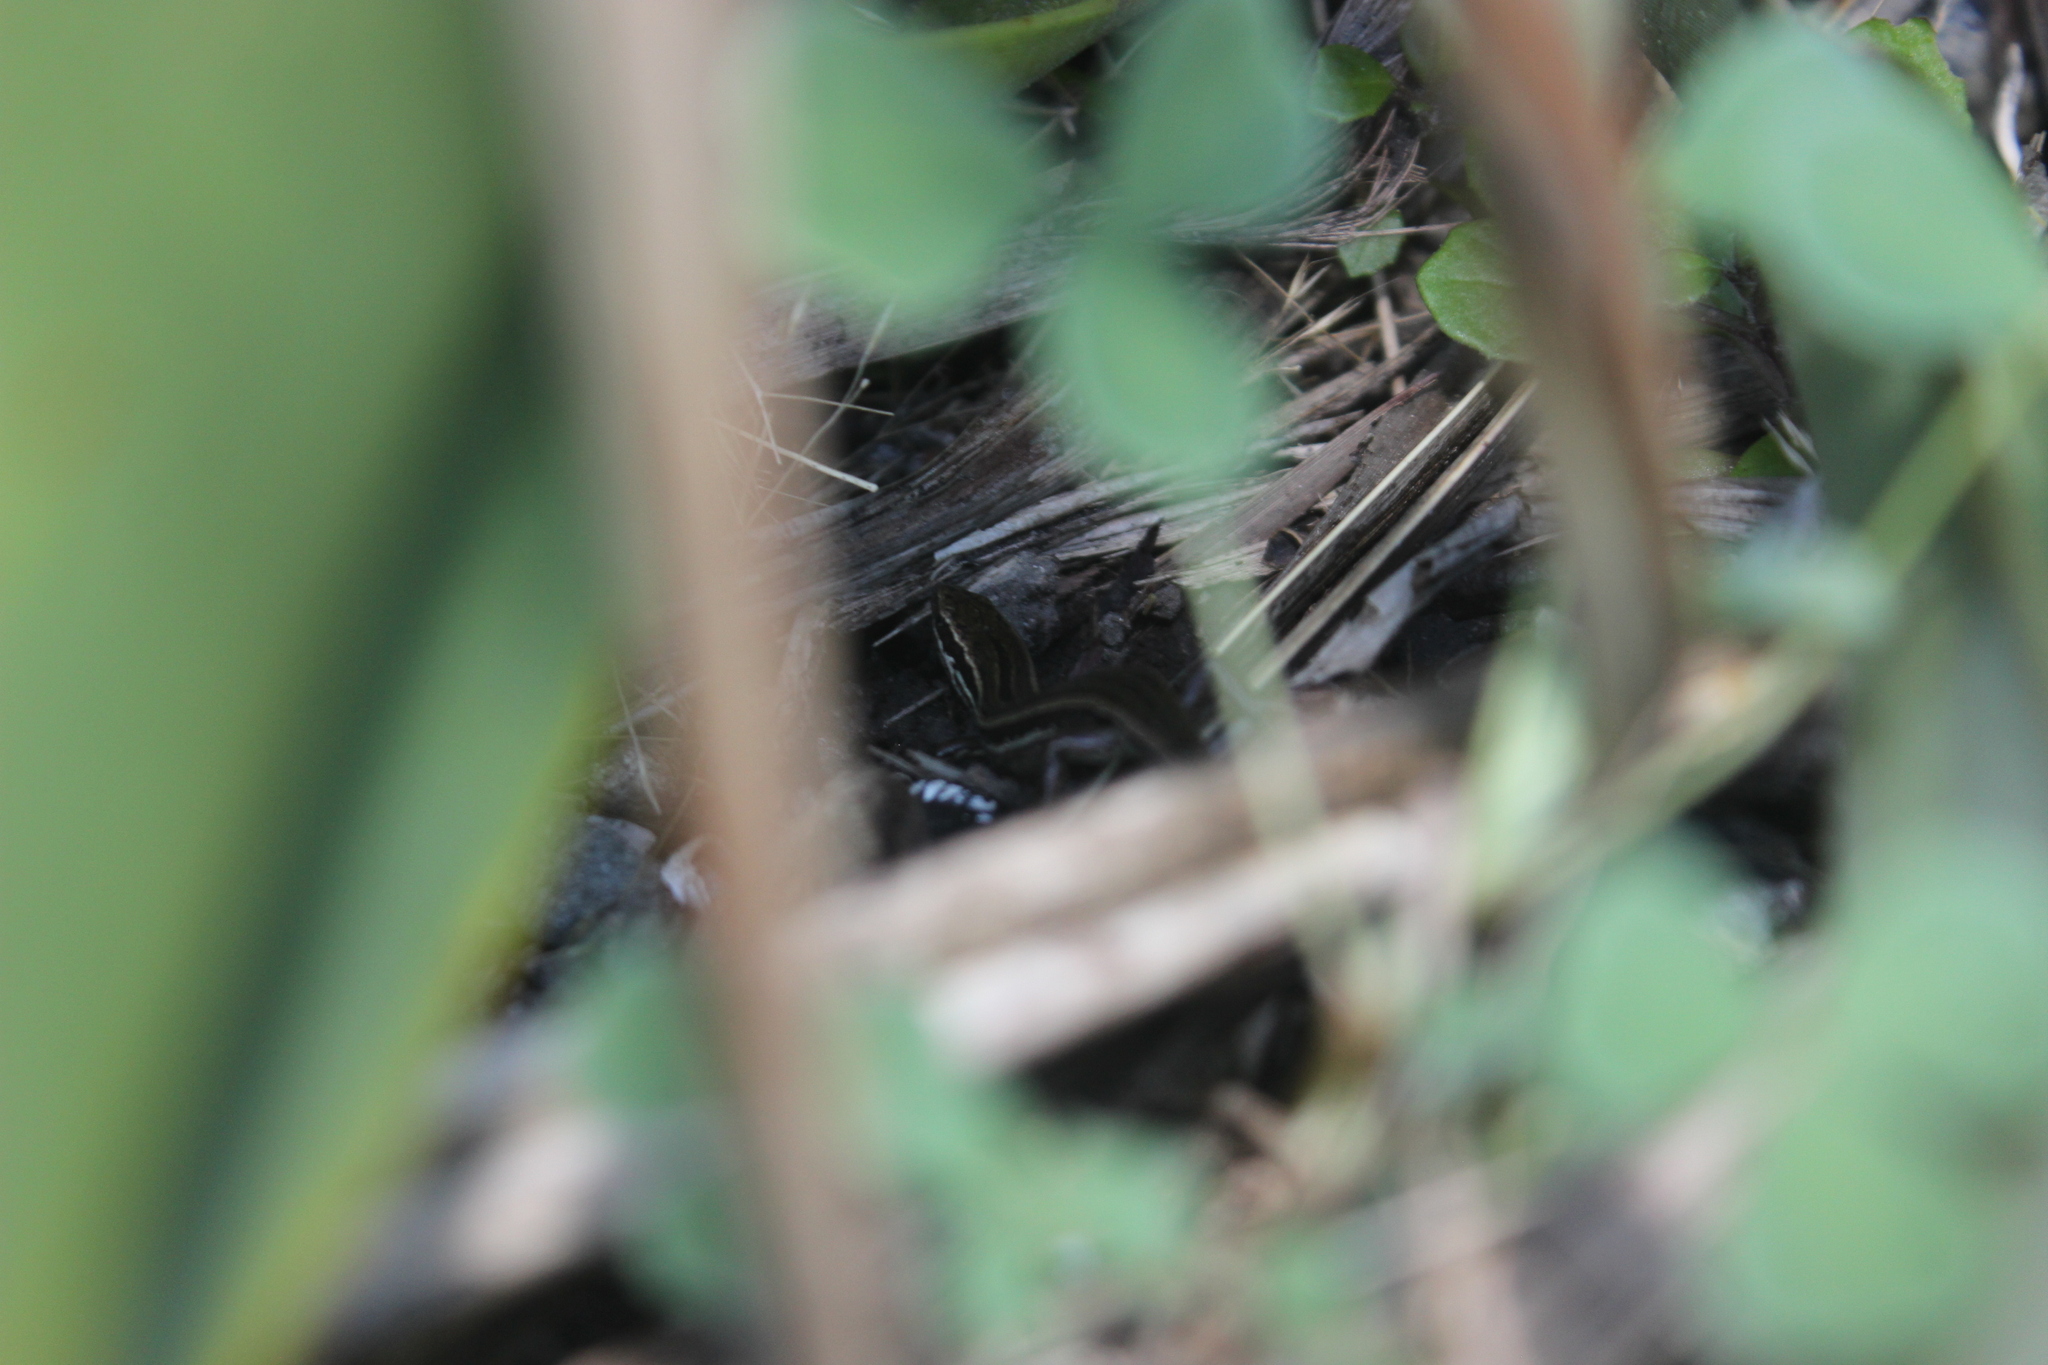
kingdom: Animalia
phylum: Chordata
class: Squamata
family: Scincidae
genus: Oligosoma
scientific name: Oligosoma polychroma
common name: Common new zealand skink
